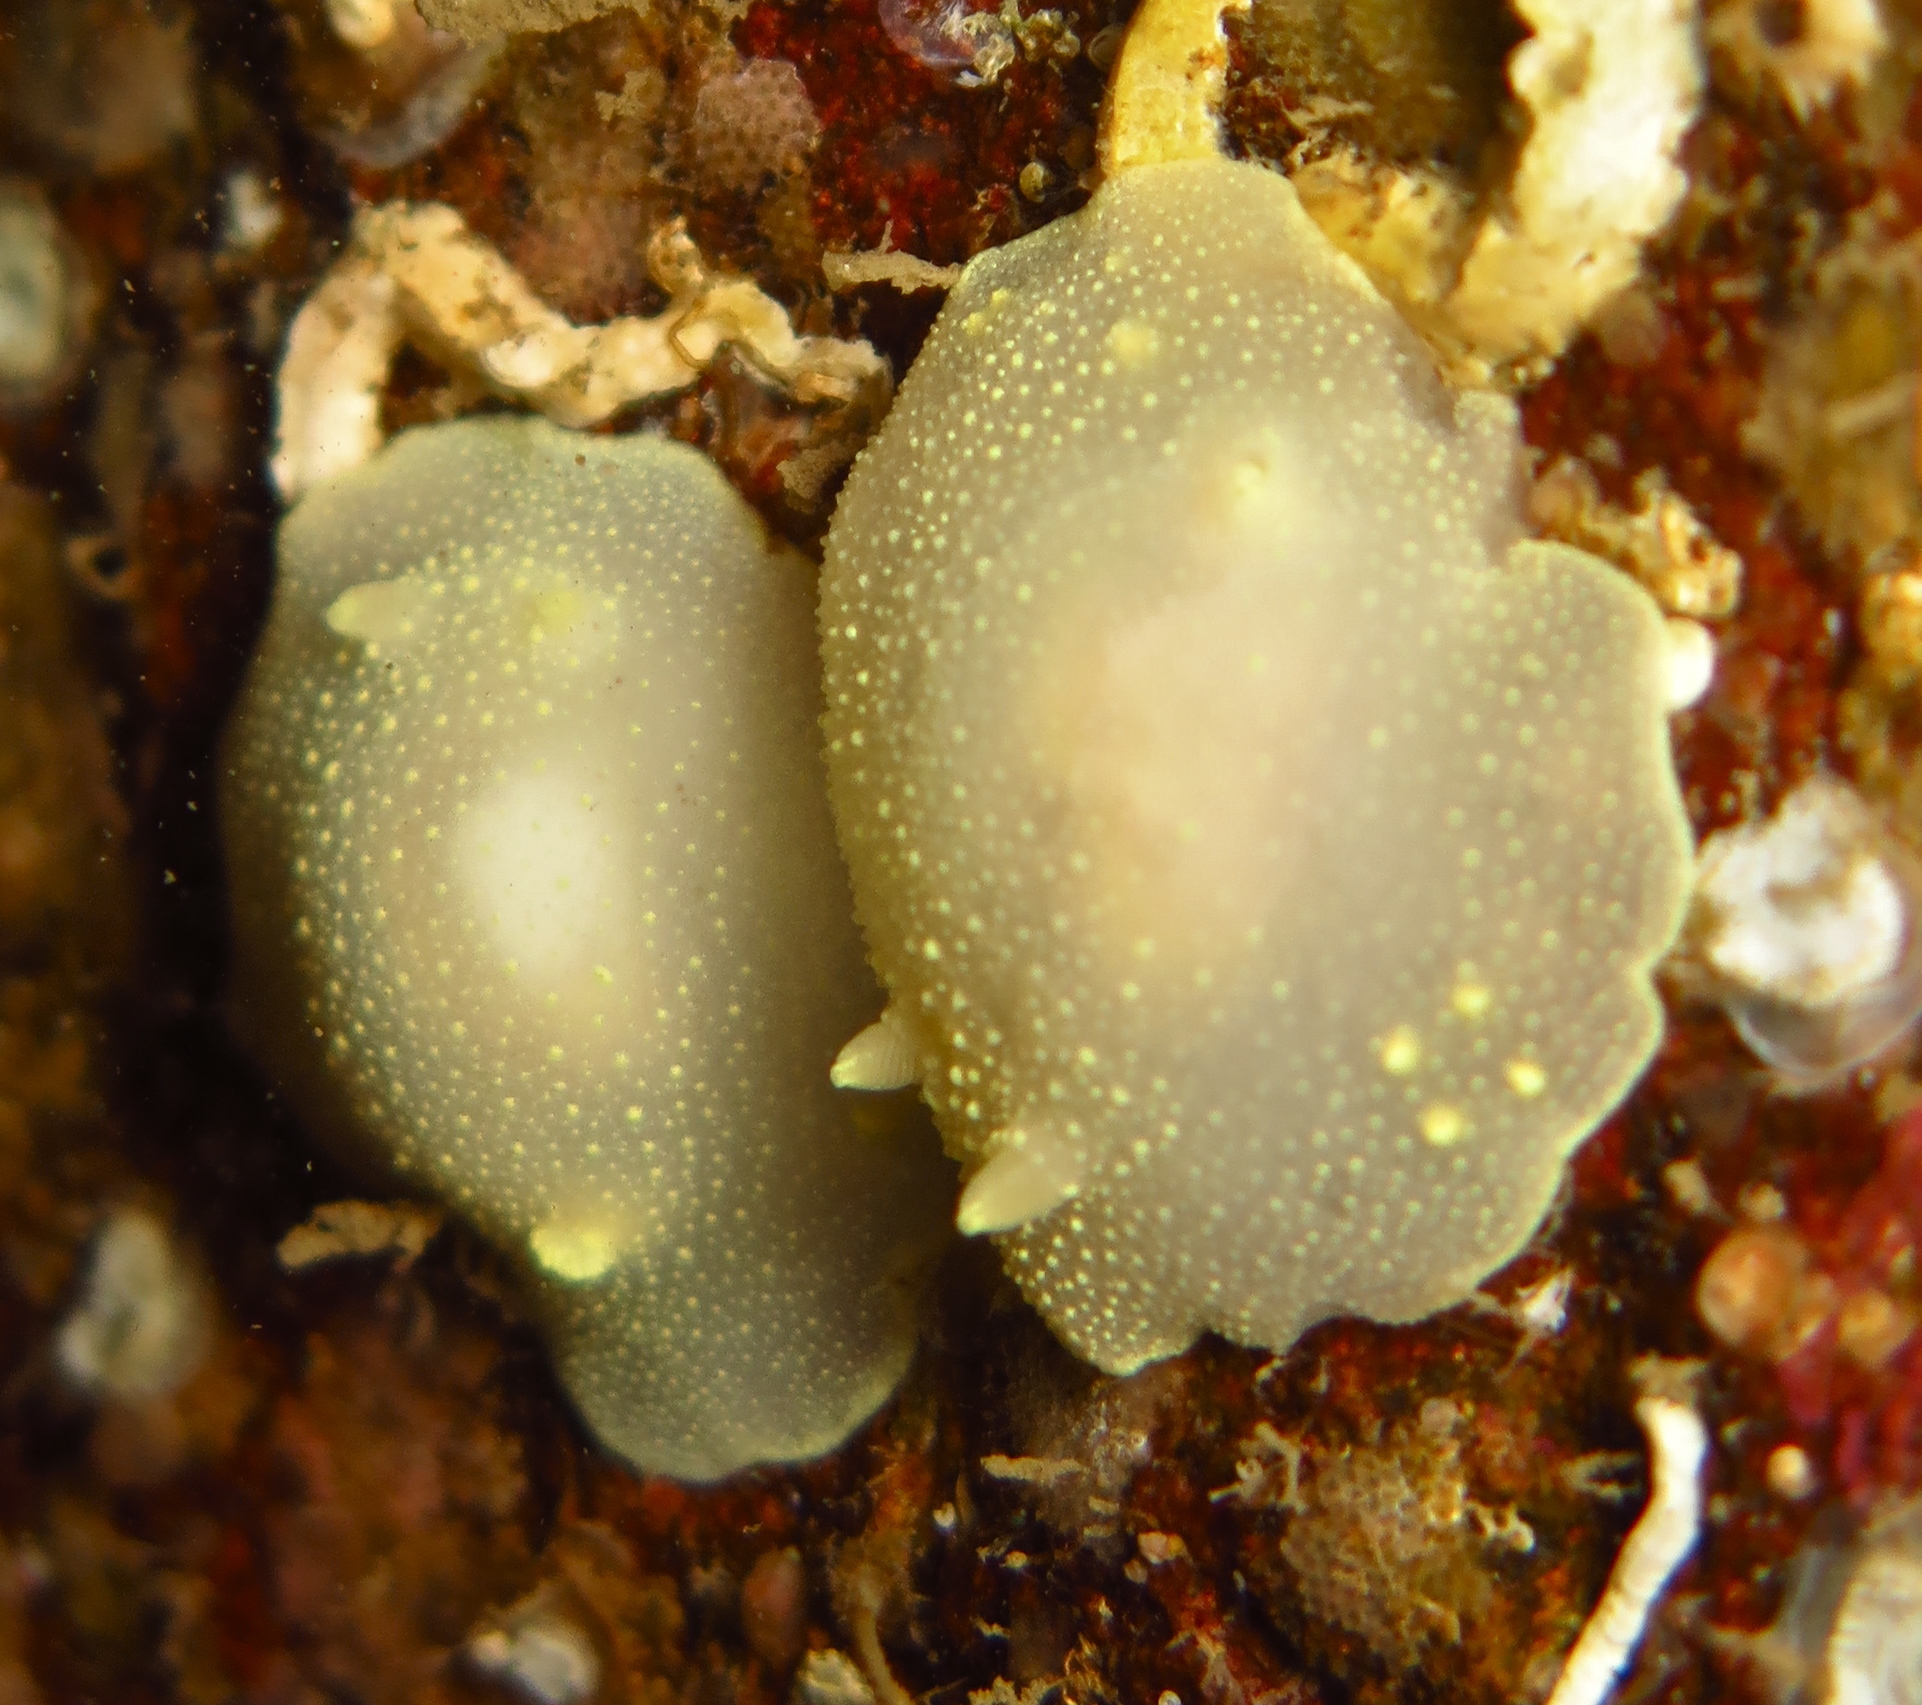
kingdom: Animalia
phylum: Mollusca
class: Gastropoda
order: Nudibranchia
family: Cadlinidae
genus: Cadlina
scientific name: Cadlina laevis
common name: White atlantic cadlina
